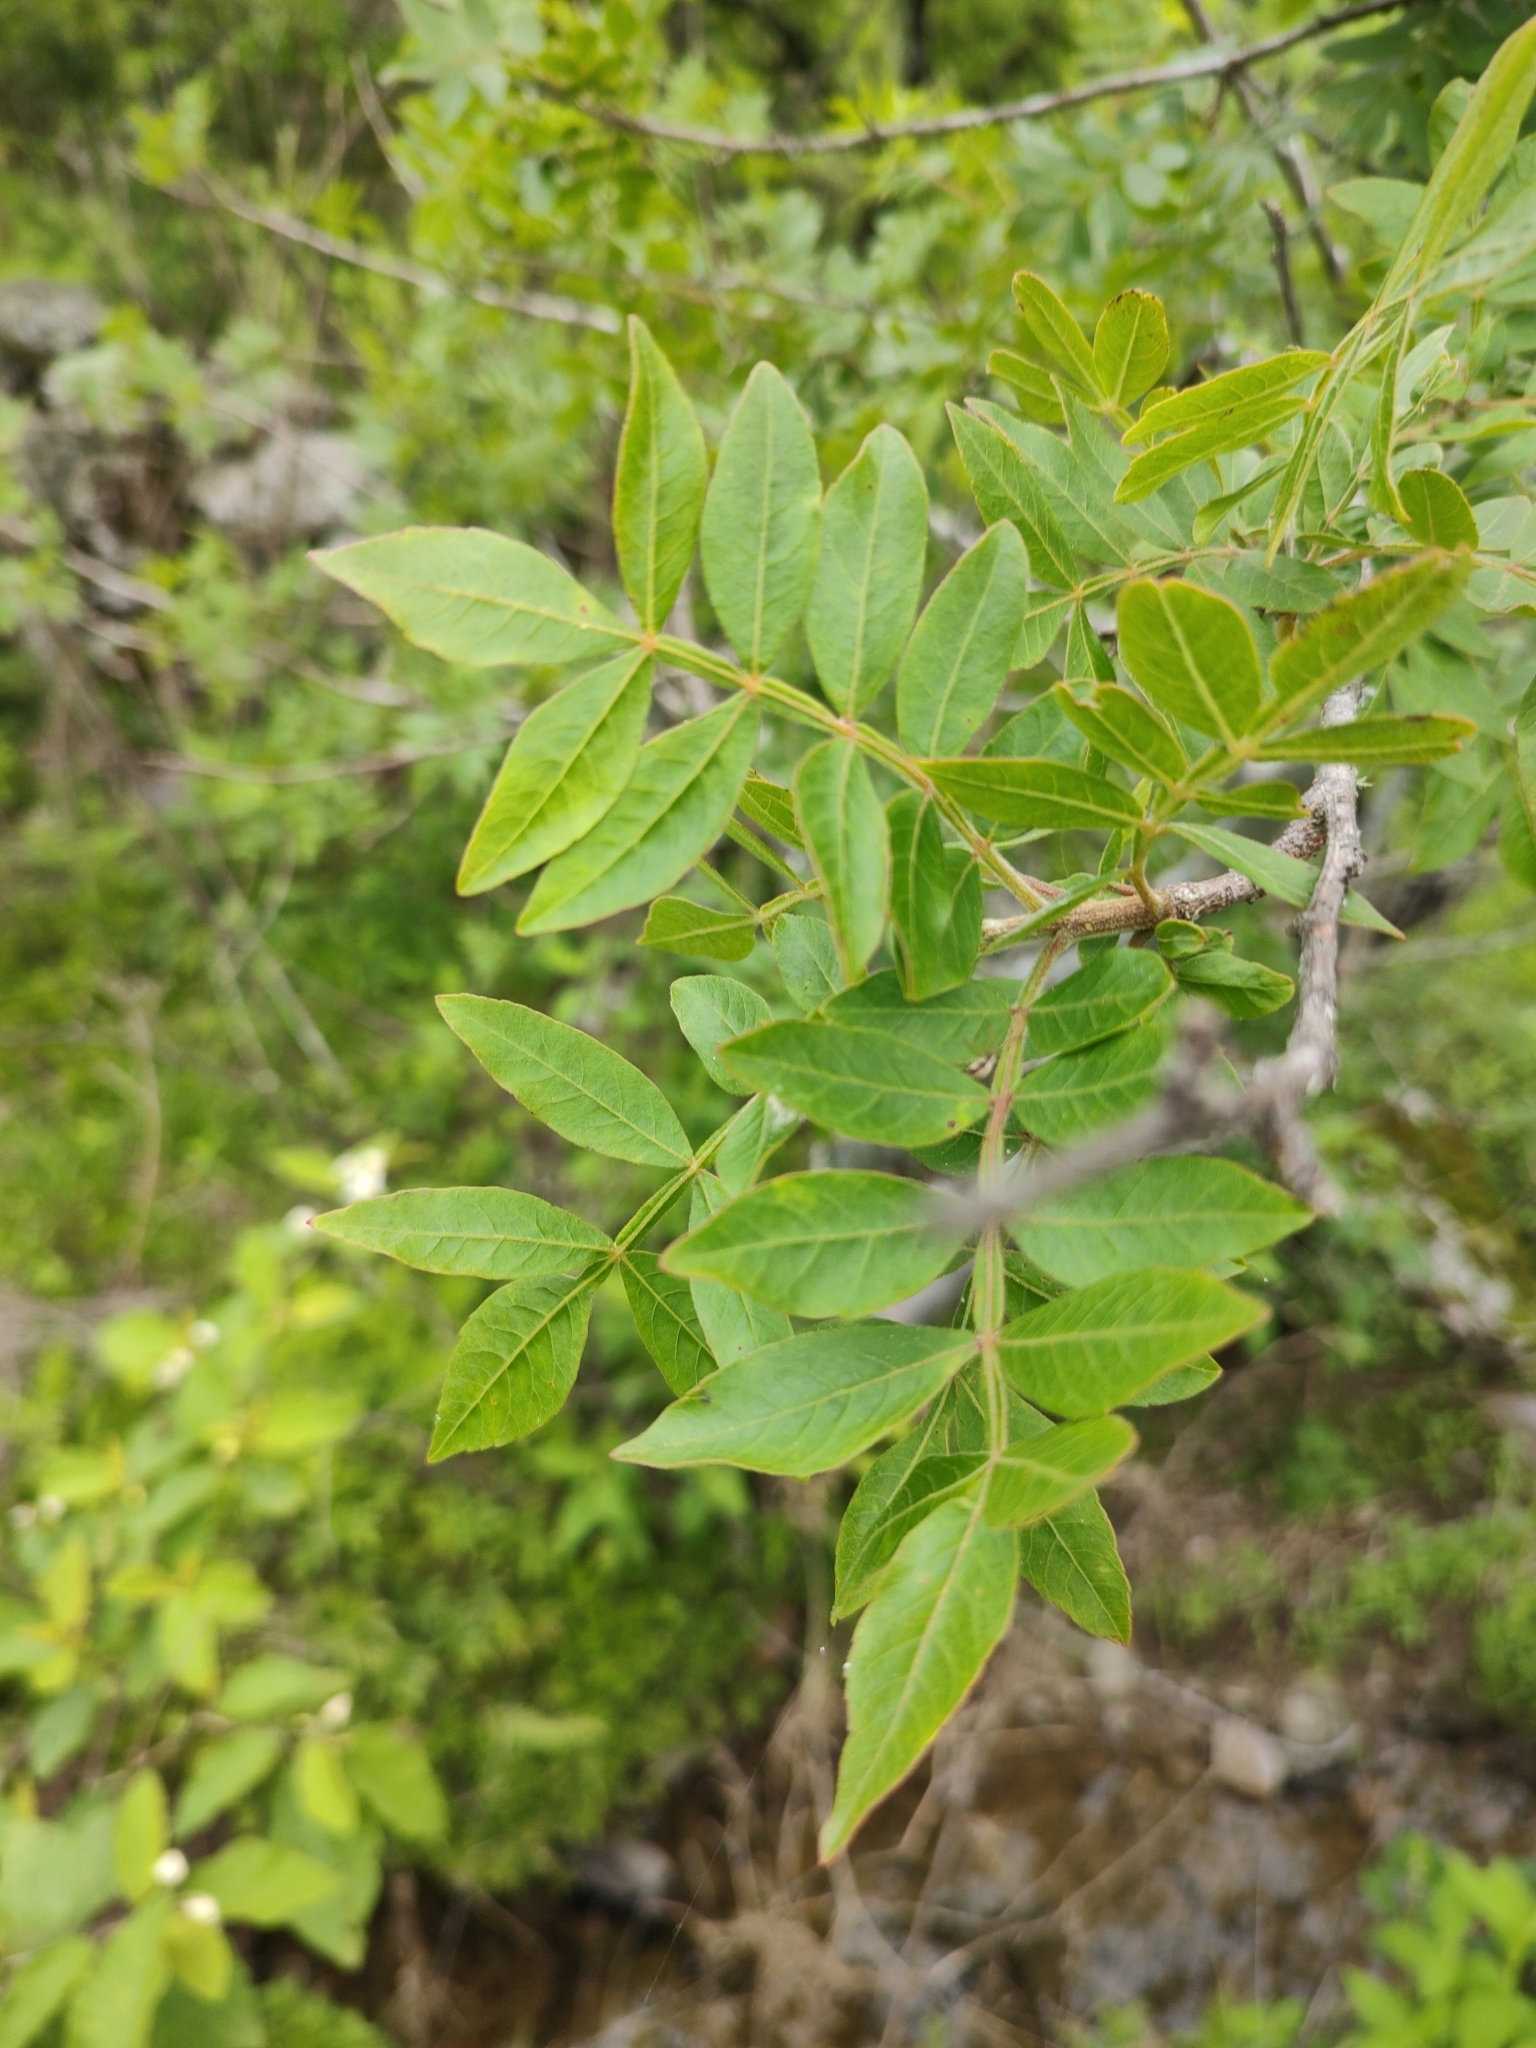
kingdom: Plantae
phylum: Tracheophyta
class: Magnoliopsida
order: Sapindales
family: Burseraceae
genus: Bursera
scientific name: Bursera ariensis
